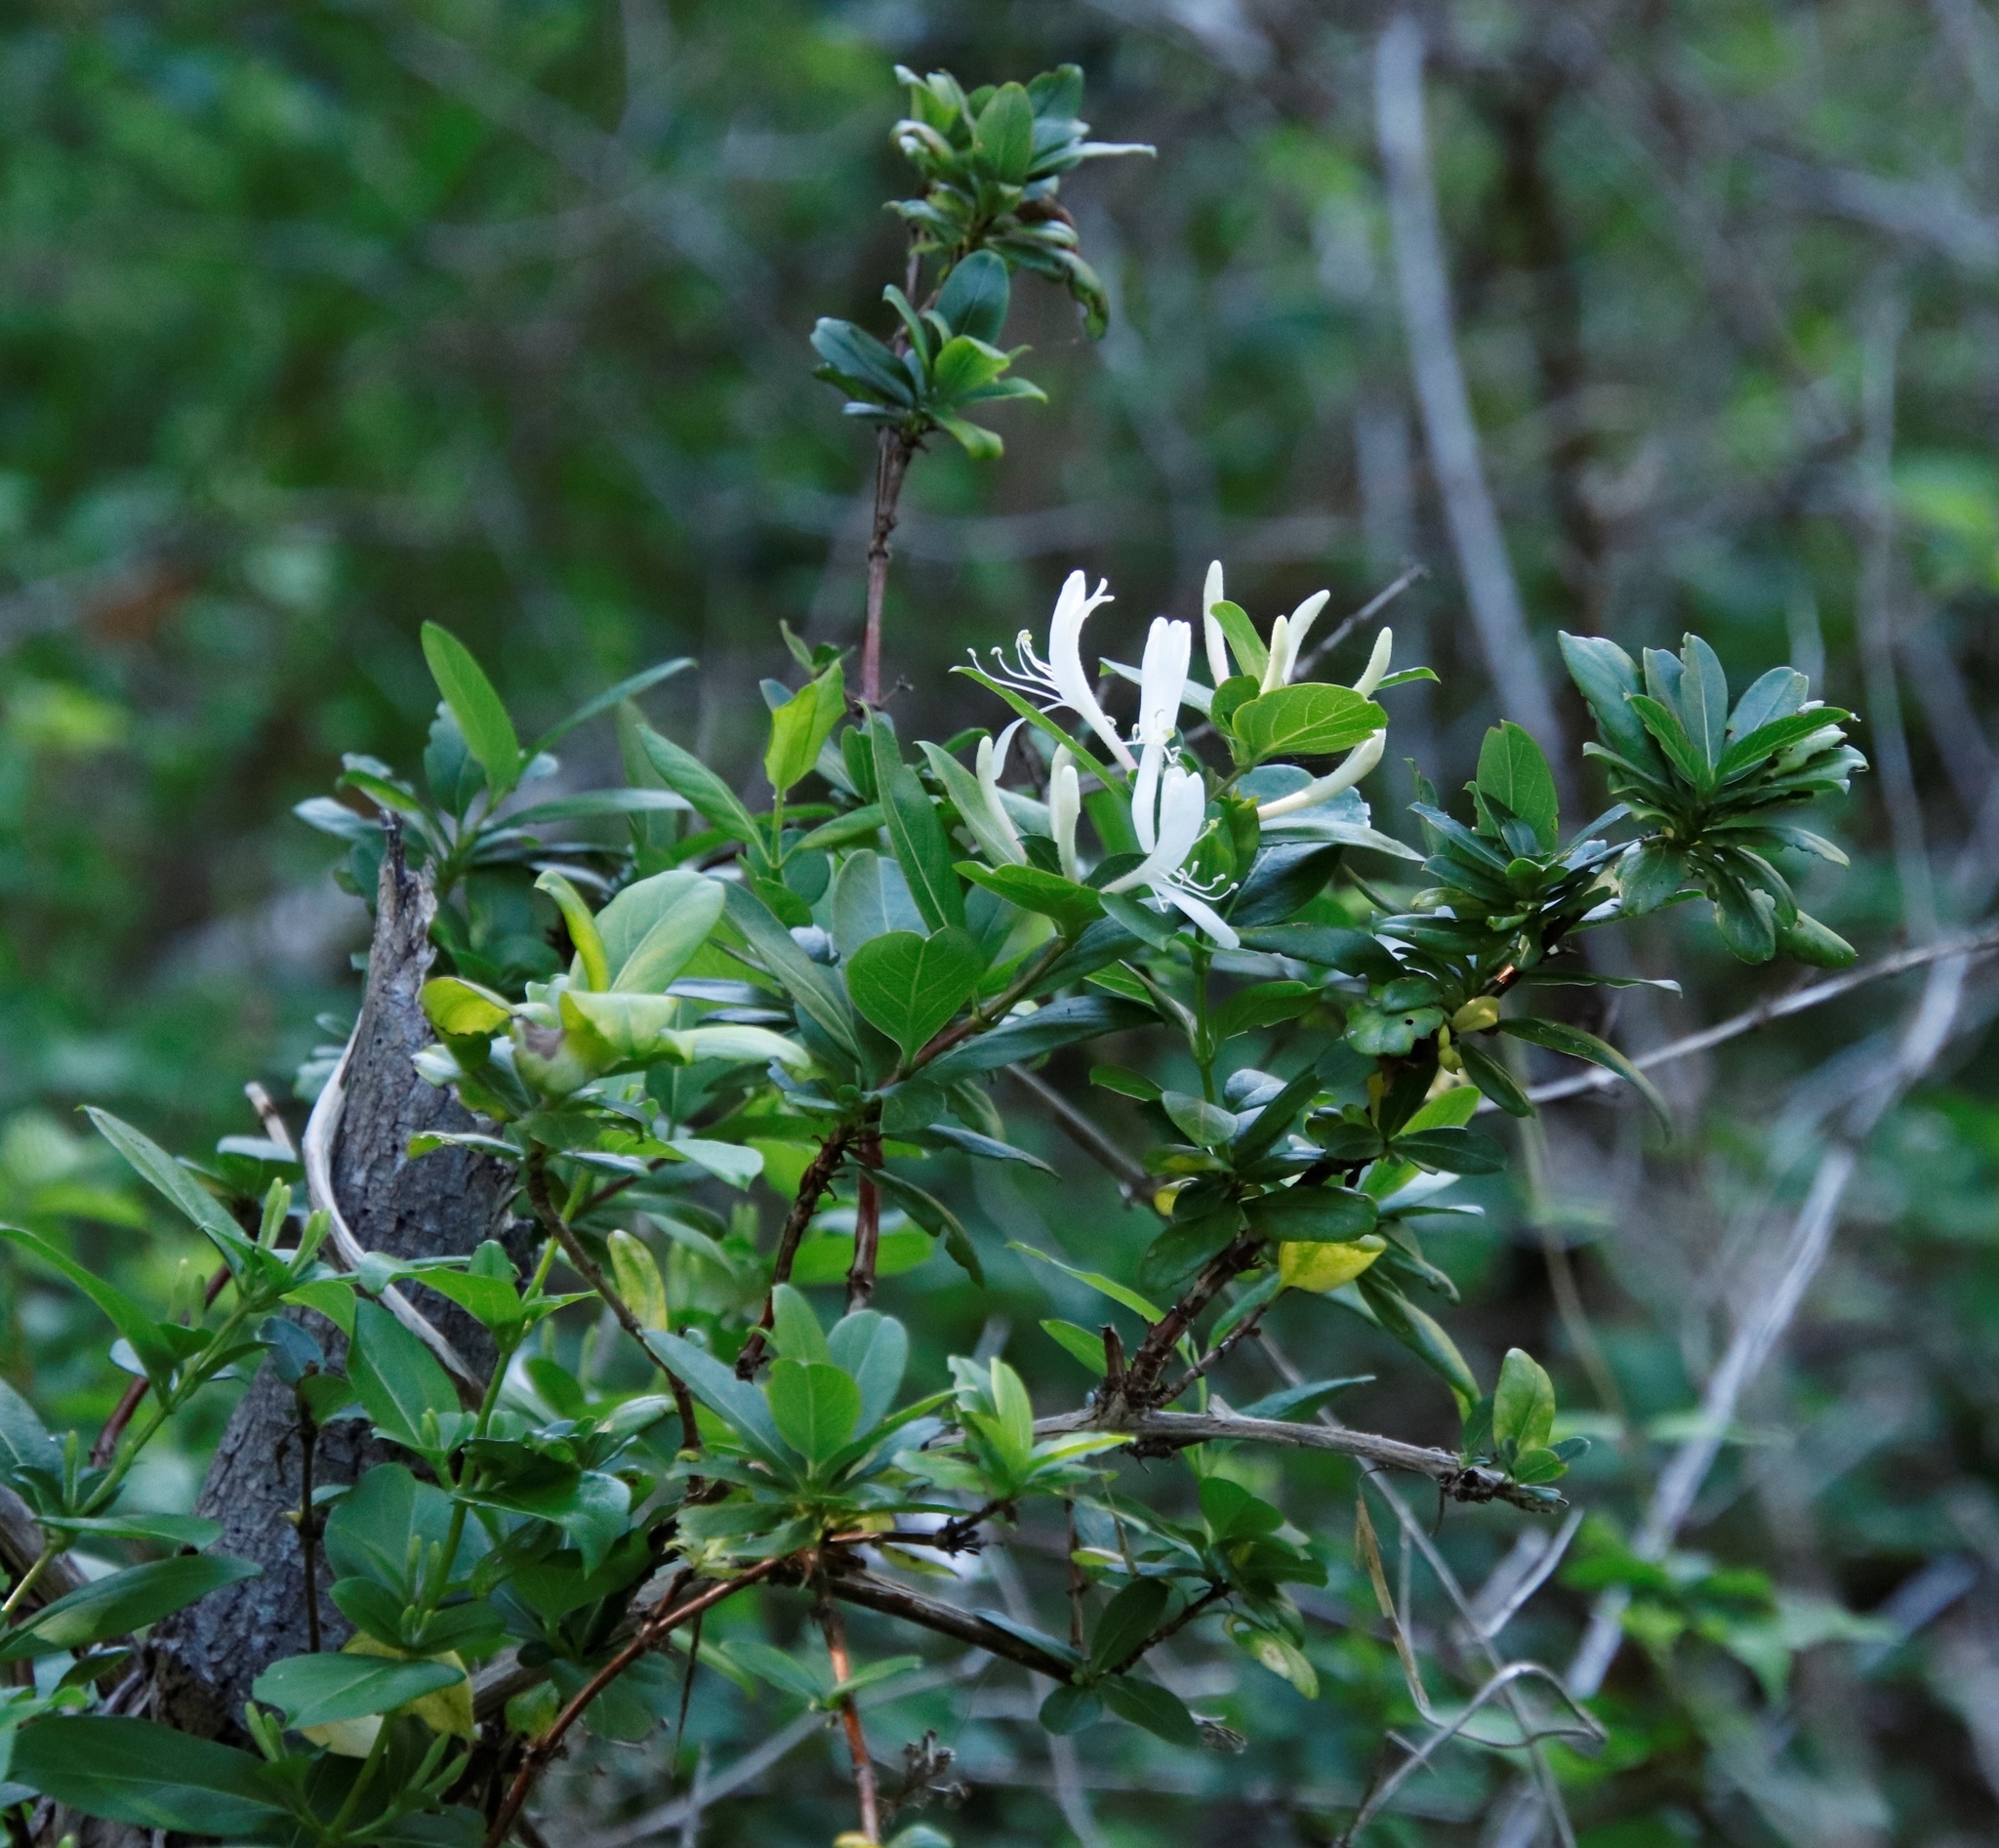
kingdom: Plantae
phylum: Tracheophyta
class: Magnoliopsida
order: Dipsacales
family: Caprifoliaceae
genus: Lonicera
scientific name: Lonicera japonica
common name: Japanese honeysuckle
